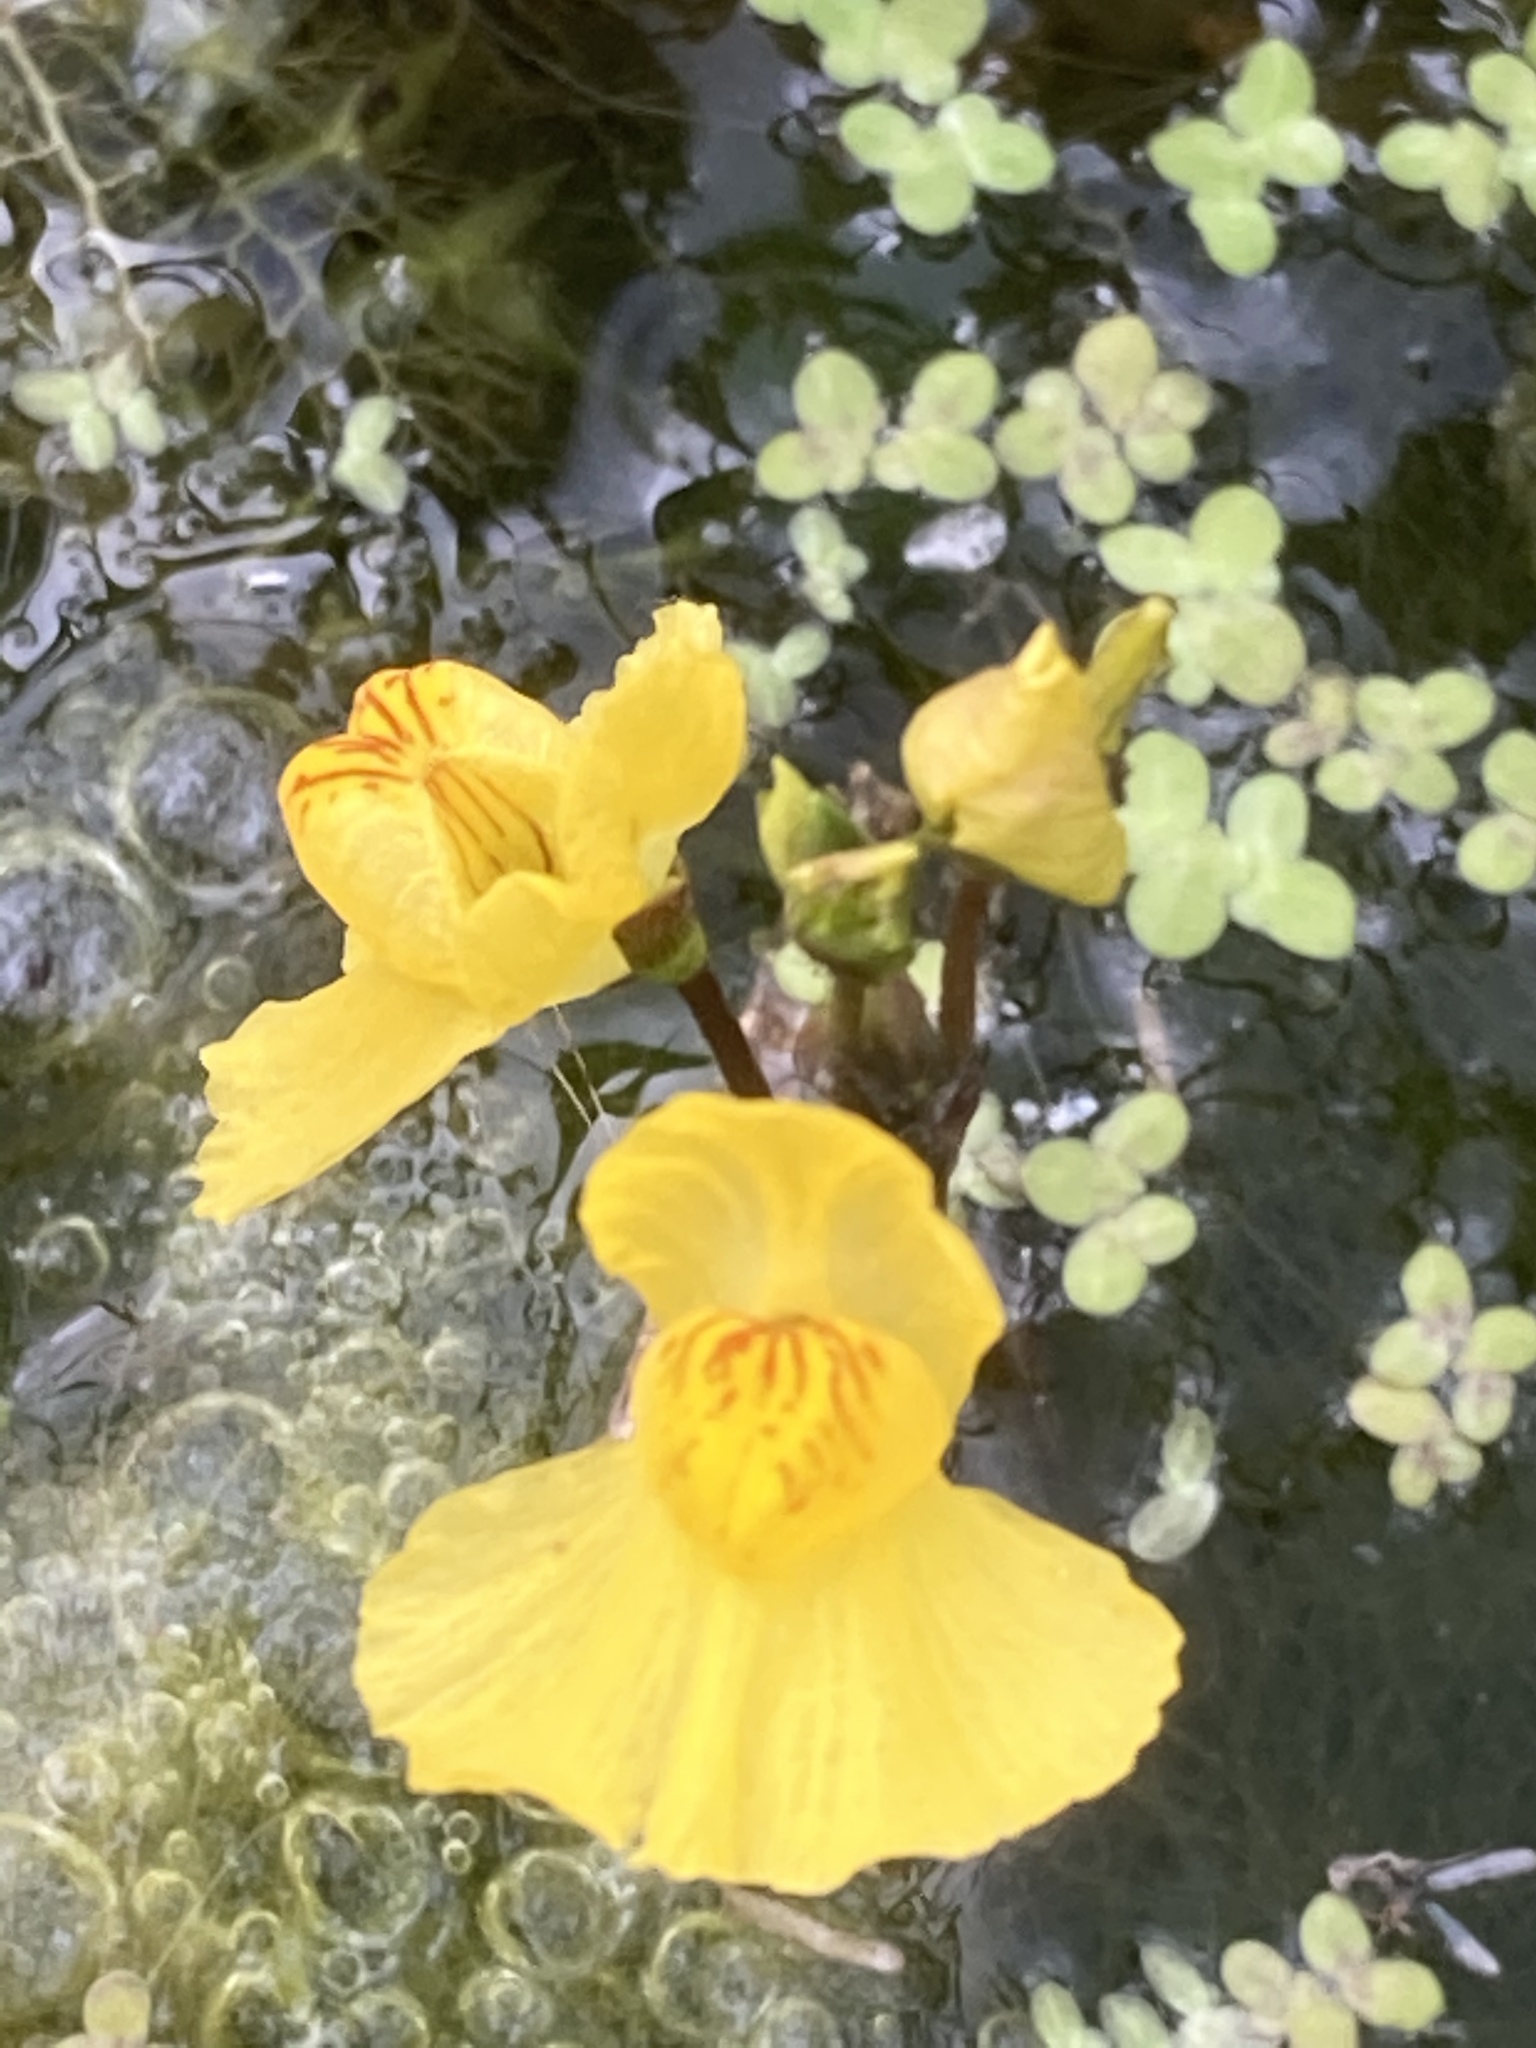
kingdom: Plantae
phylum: Tracheophyta
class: Magnoliopsida
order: Lamiales
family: Lentibulariaceae
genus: Utricularia
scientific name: Utricularia australis
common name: Bladderwort
